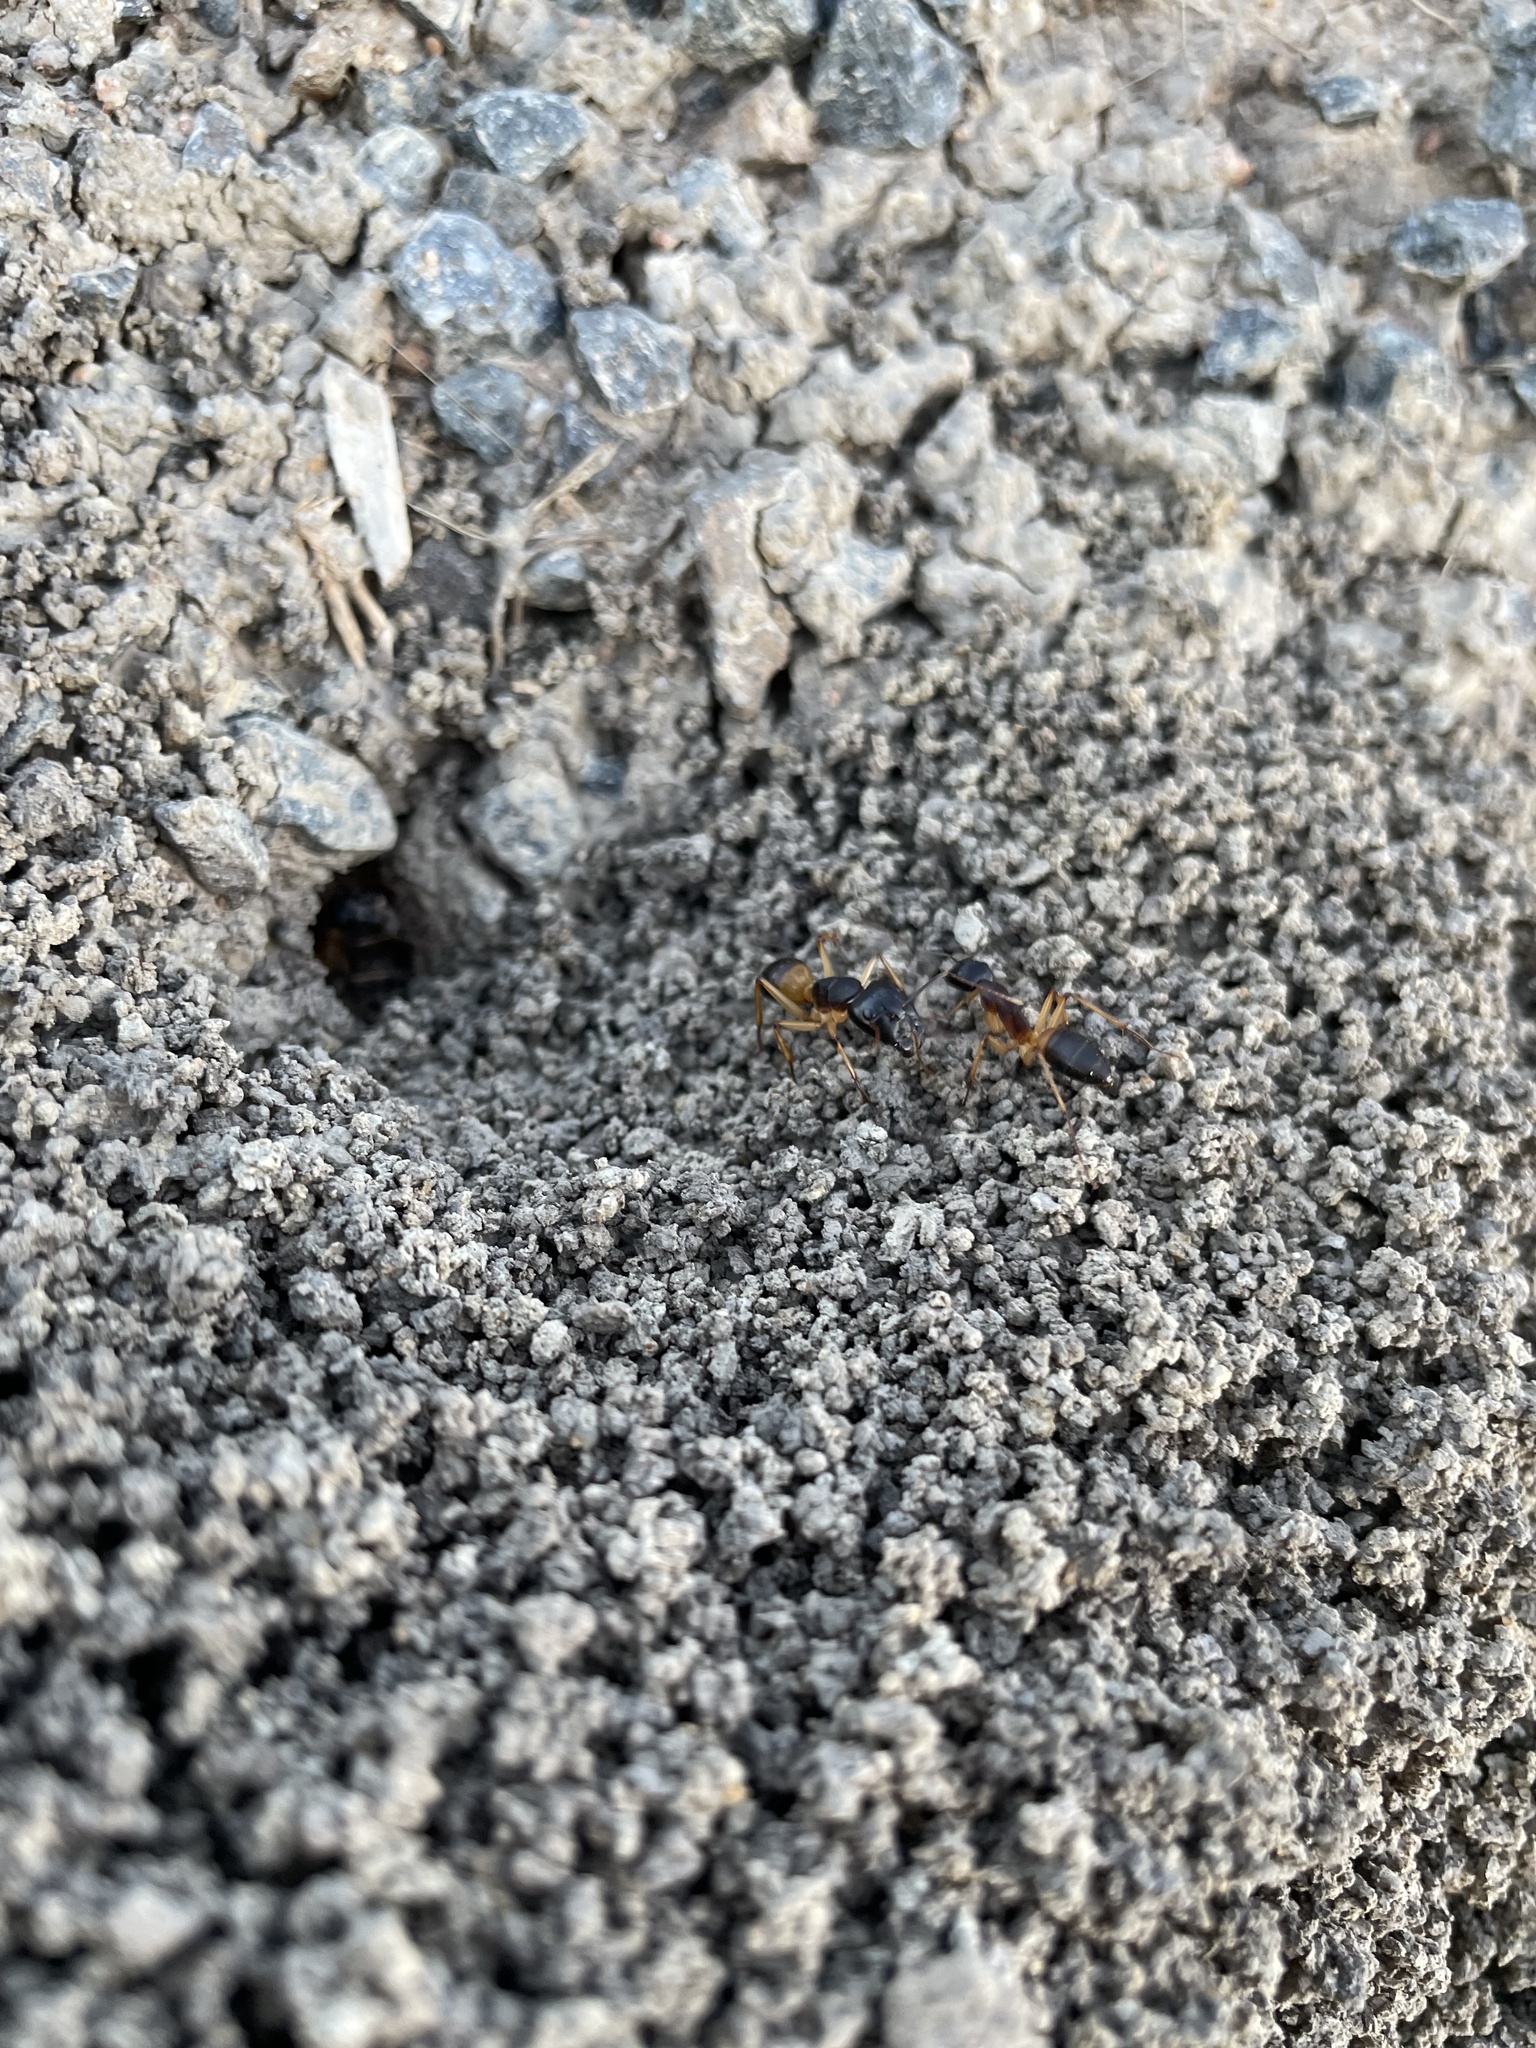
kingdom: Animalia
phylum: Arthropoda
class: Insecta
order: Hymenoptera
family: Formicidae
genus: Camponotus
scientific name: Camponotus consobrinus
